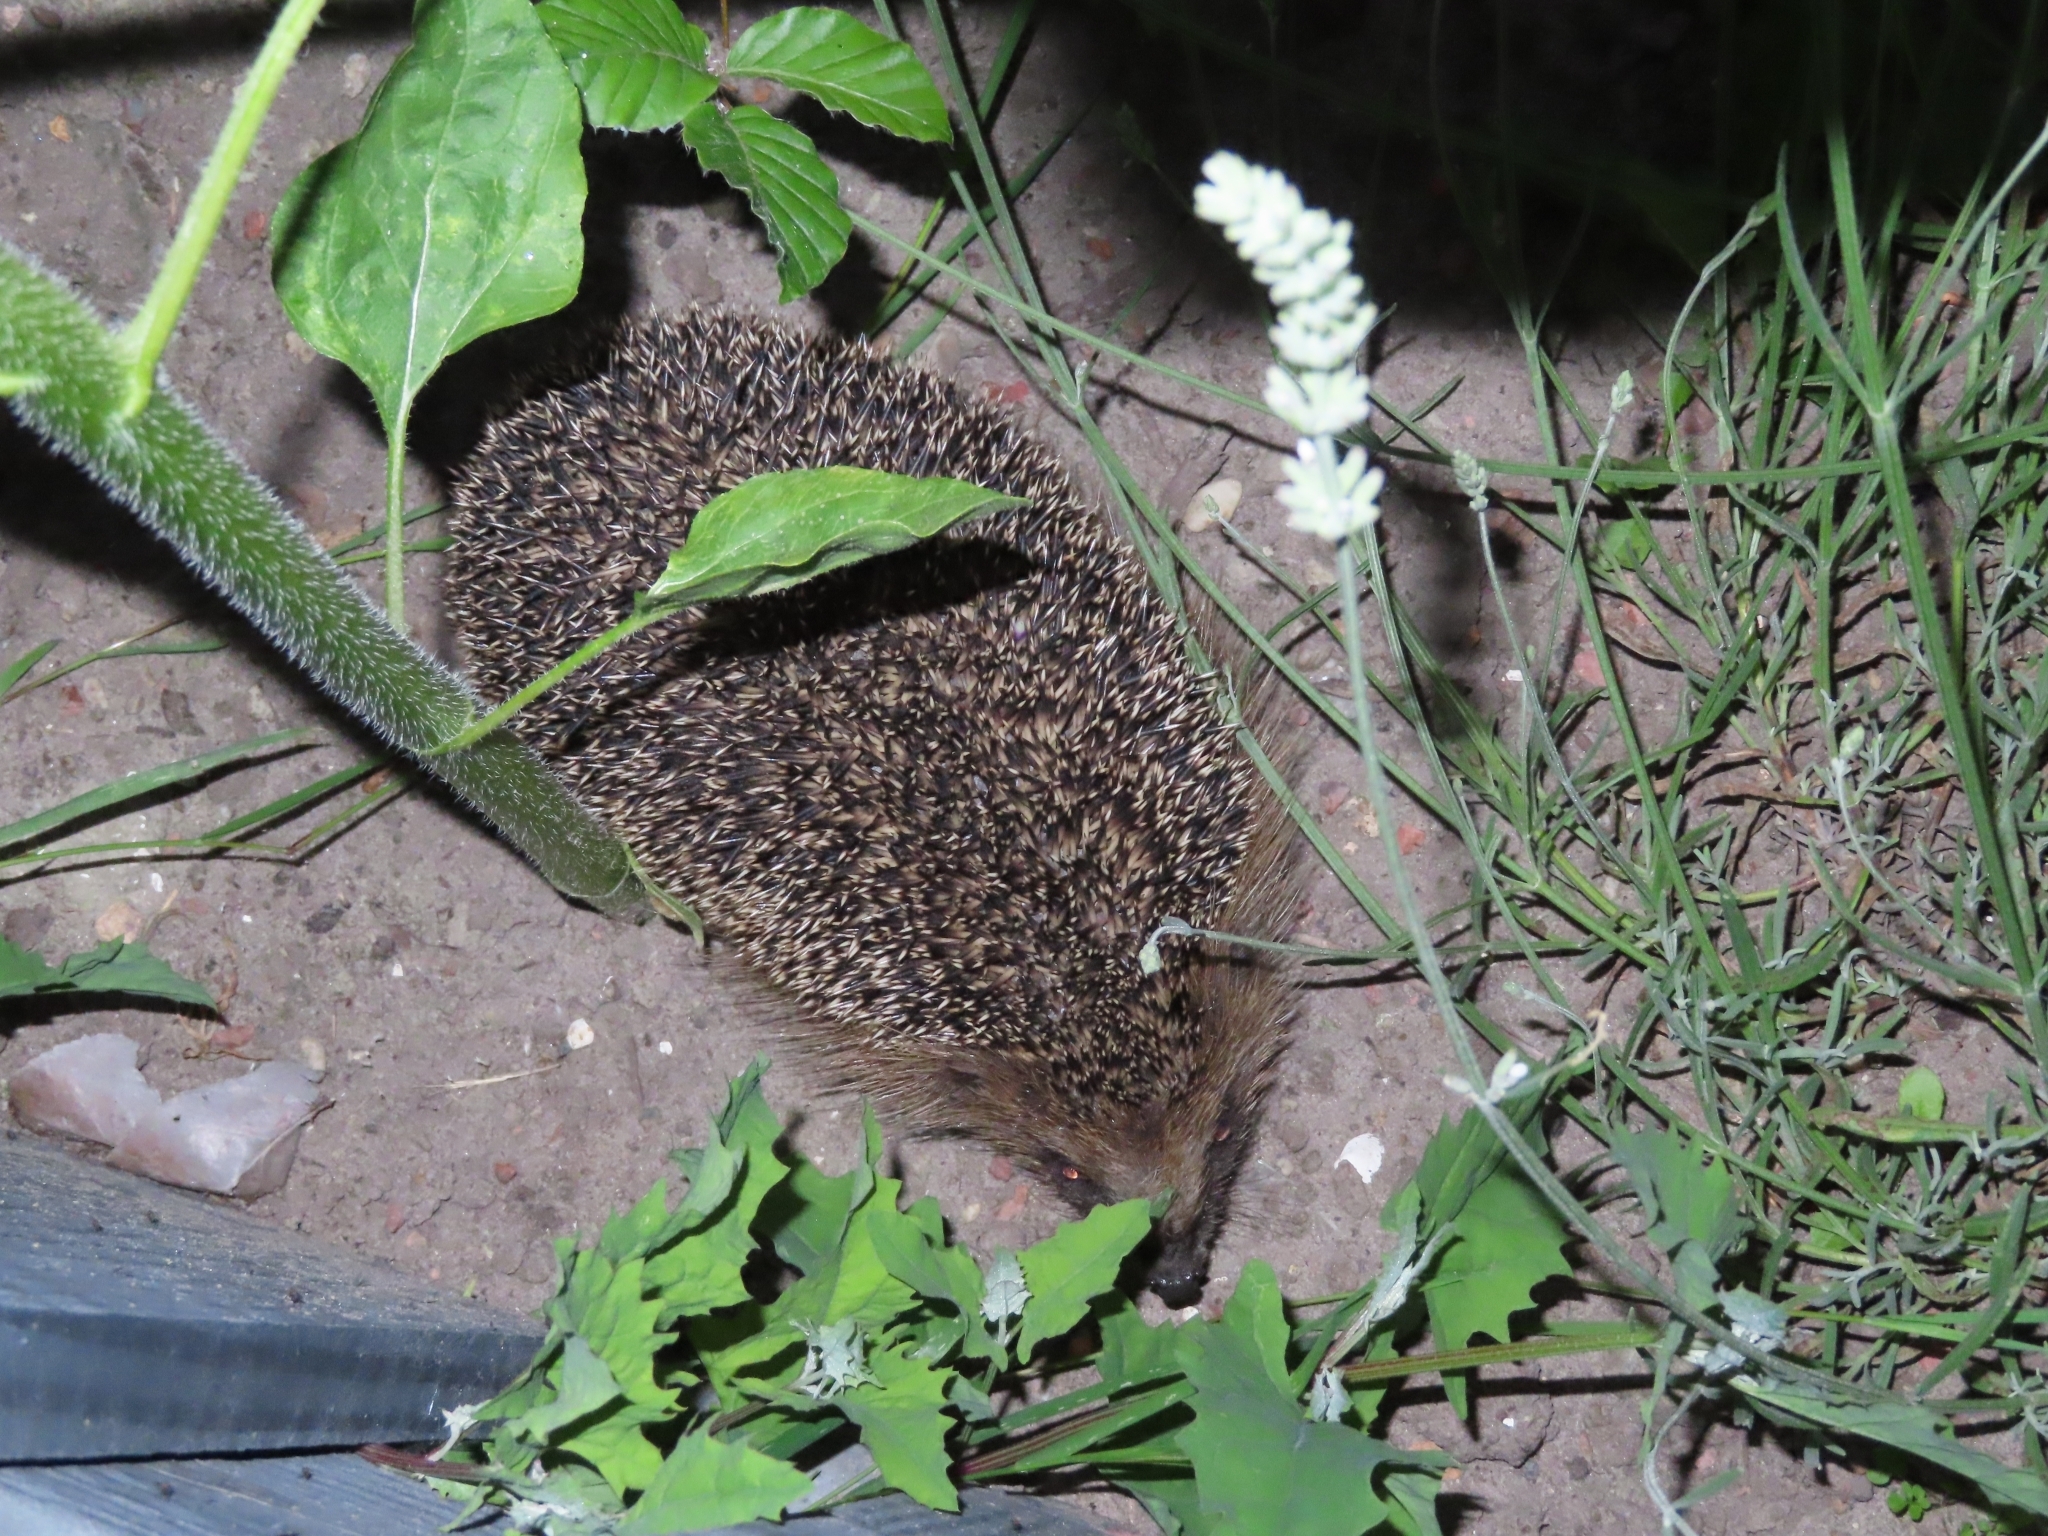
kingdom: Animalia
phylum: Chordata
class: Mammalia
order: Erinaceomorpha
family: Erinaceidae
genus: Erinaceus
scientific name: Erinaceus europaeus
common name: West european hedgehog
